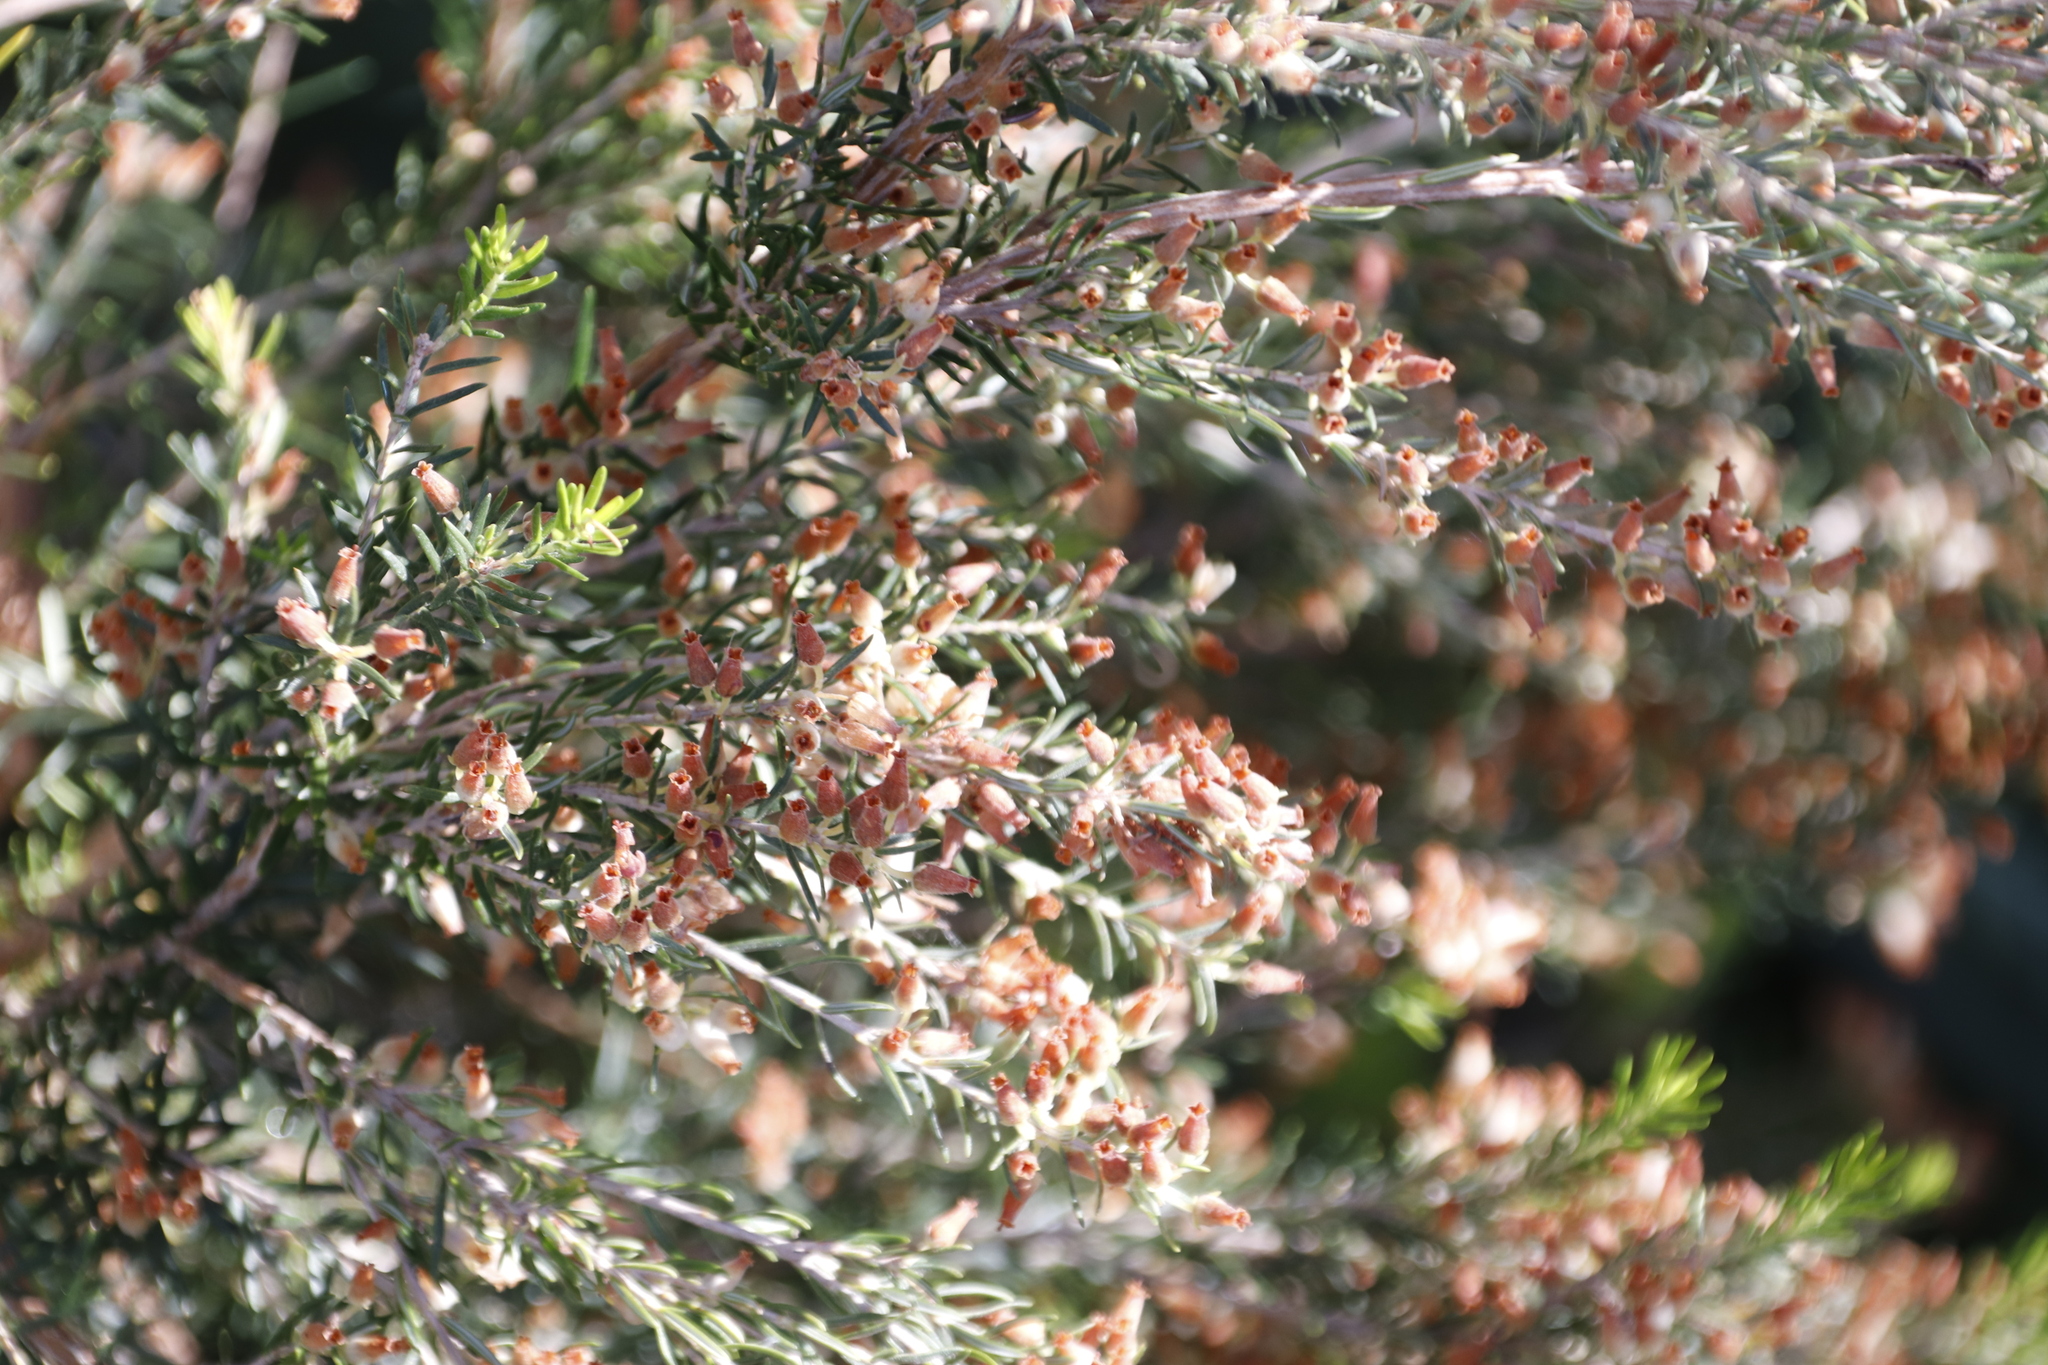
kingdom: Plantae
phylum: Tracheophyta
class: Magnoliopsida
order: Ericales
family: Ericaceae
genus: Erica
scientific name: Erica caffra
